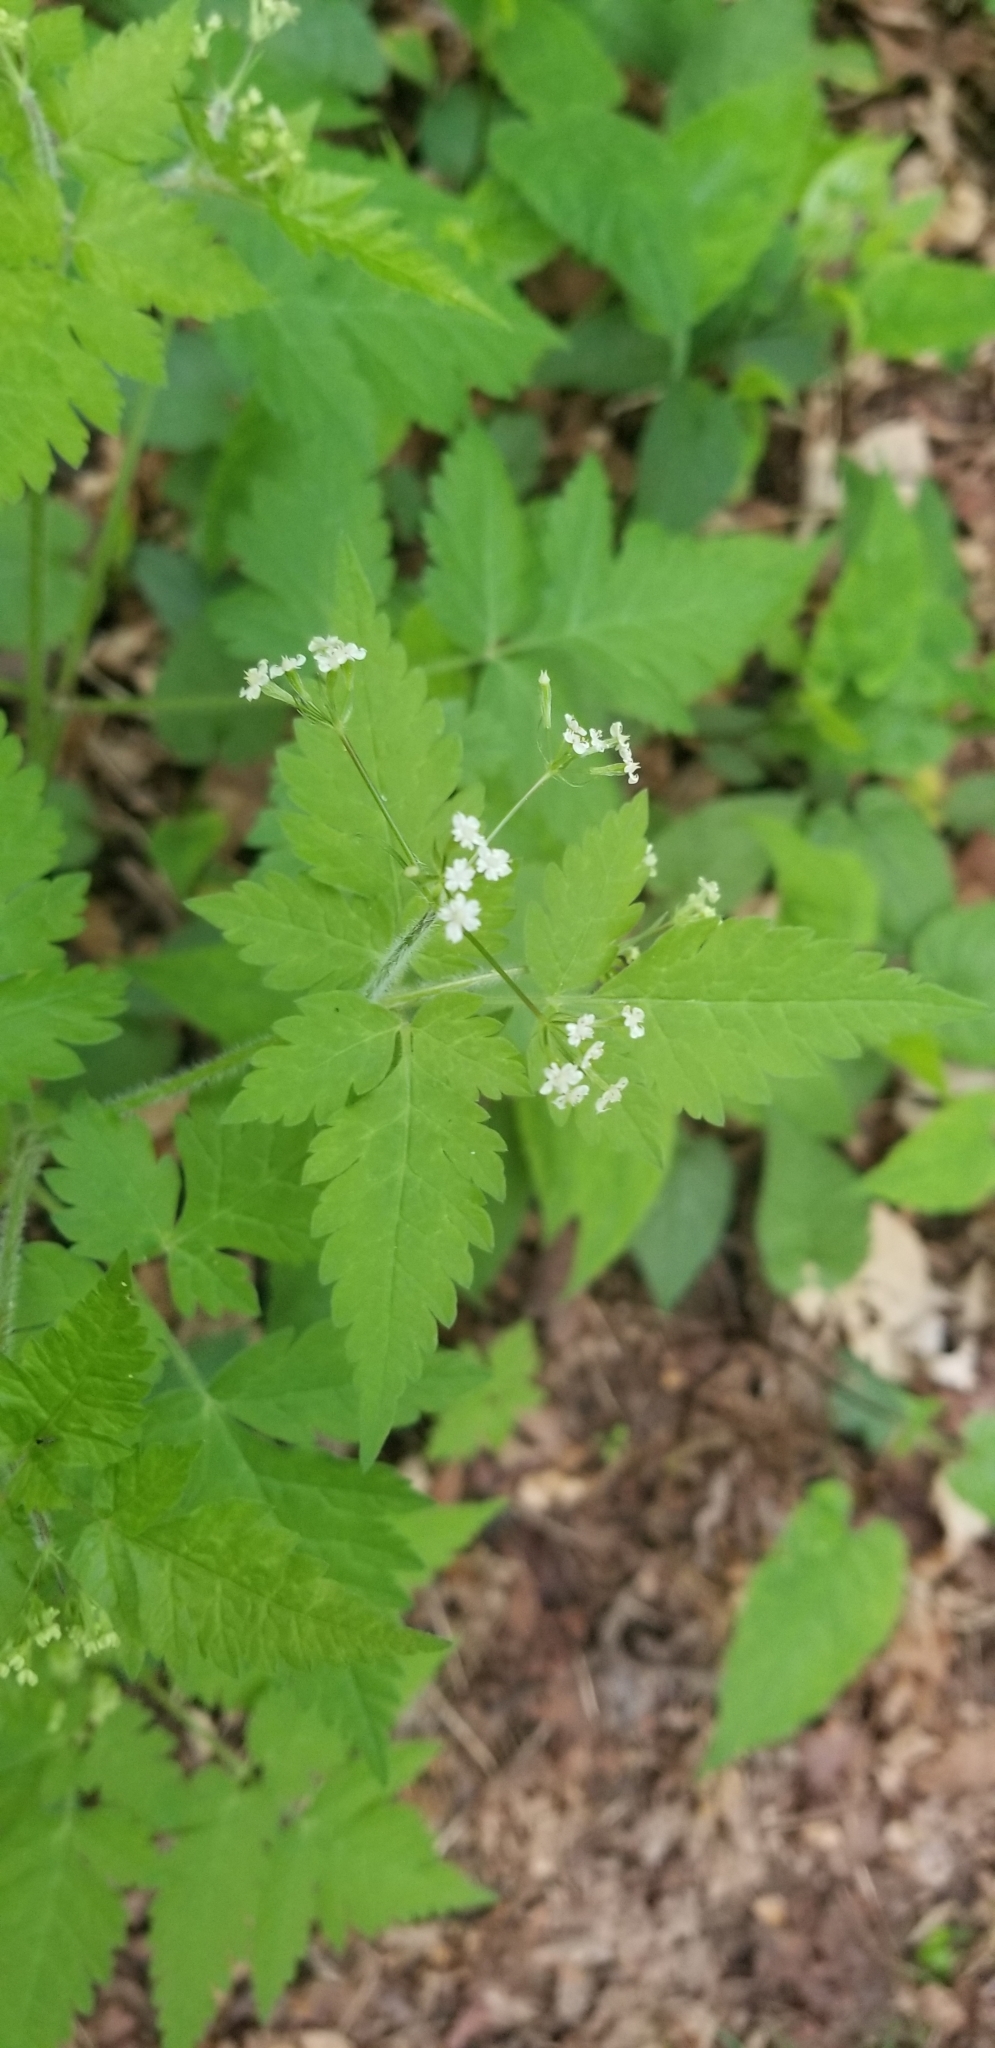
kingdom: Plantae
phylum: Tracheophyta
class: Magnoliopsida
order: Apiales
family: Apiaceae
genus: Osmorhiza
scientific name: Osmorhiza claytonii
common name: Hairy sweet cicely
